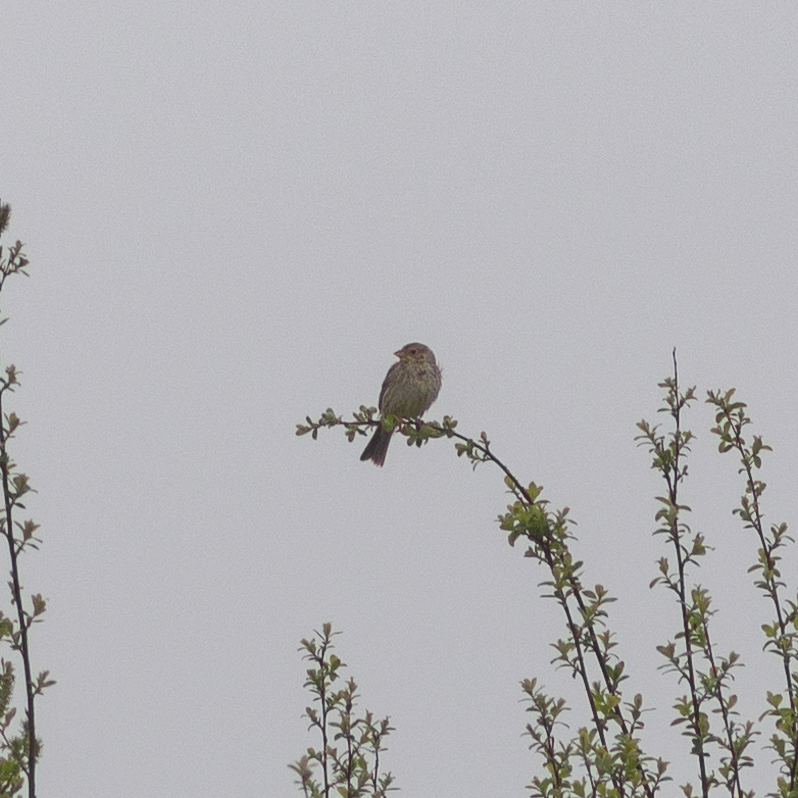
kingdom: Animalia
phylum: Chordata
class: Aves
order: Passeriformes
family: Emberizidae
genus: Emberiza
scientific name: Emberiza calandra
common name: Corn bunting
